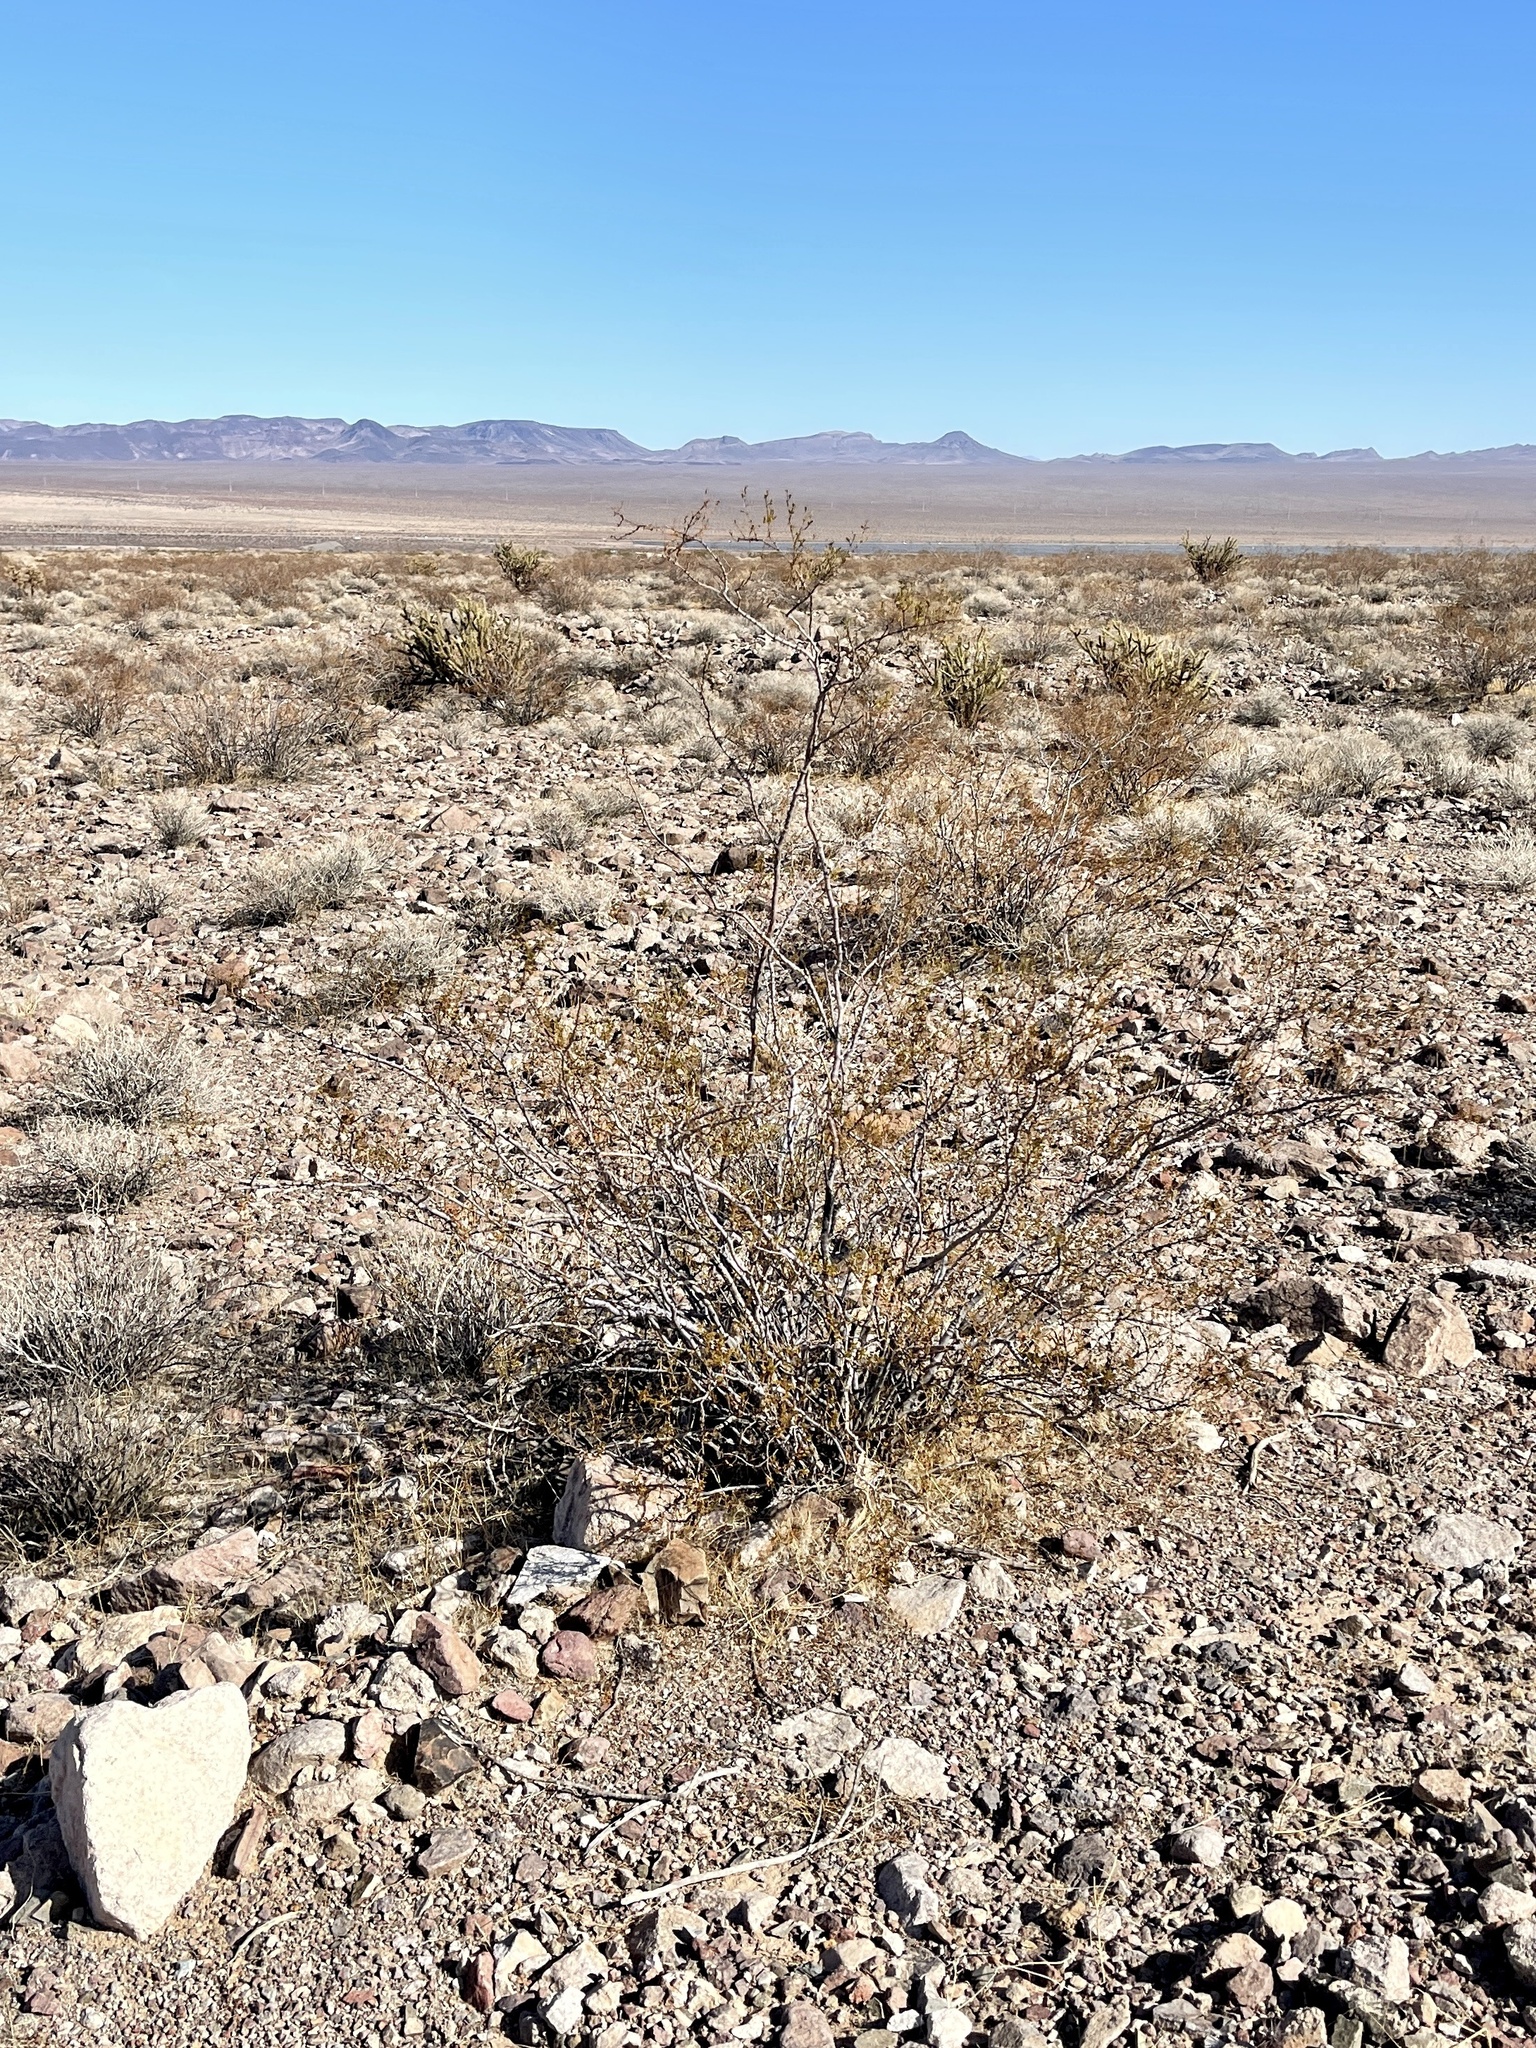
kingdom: Plantae
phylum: Tracheophyta
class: Magnoliopsida
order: Zygophyllales
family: Zygophyllaceae
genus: Larrea
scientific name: Larrea tridentata
